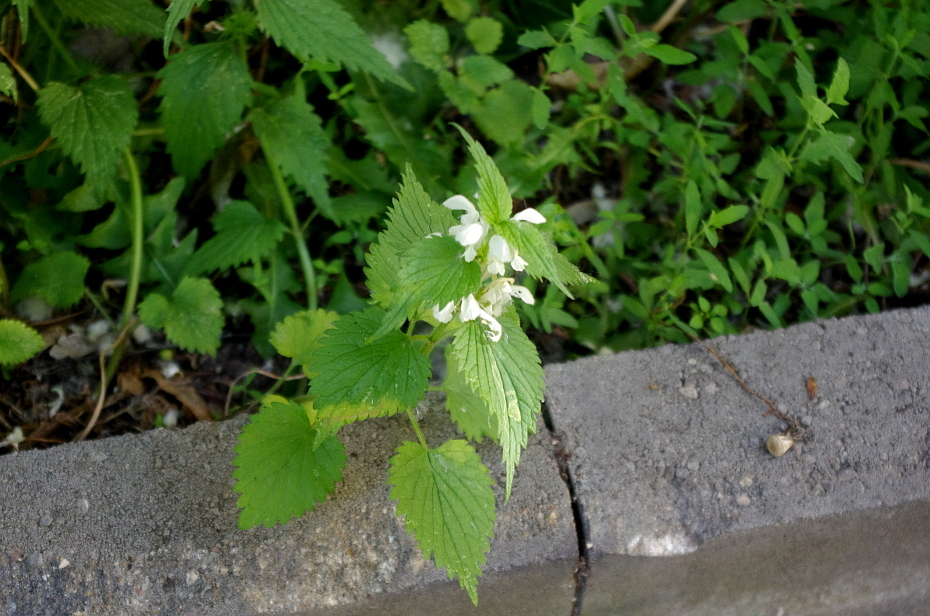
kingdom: Plantae
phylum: Tracheophyta
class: Magnoliopsida
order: Lamiales
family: Lamiaceae
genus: Lamium
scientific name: Lamium album
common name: White dead-nettle
